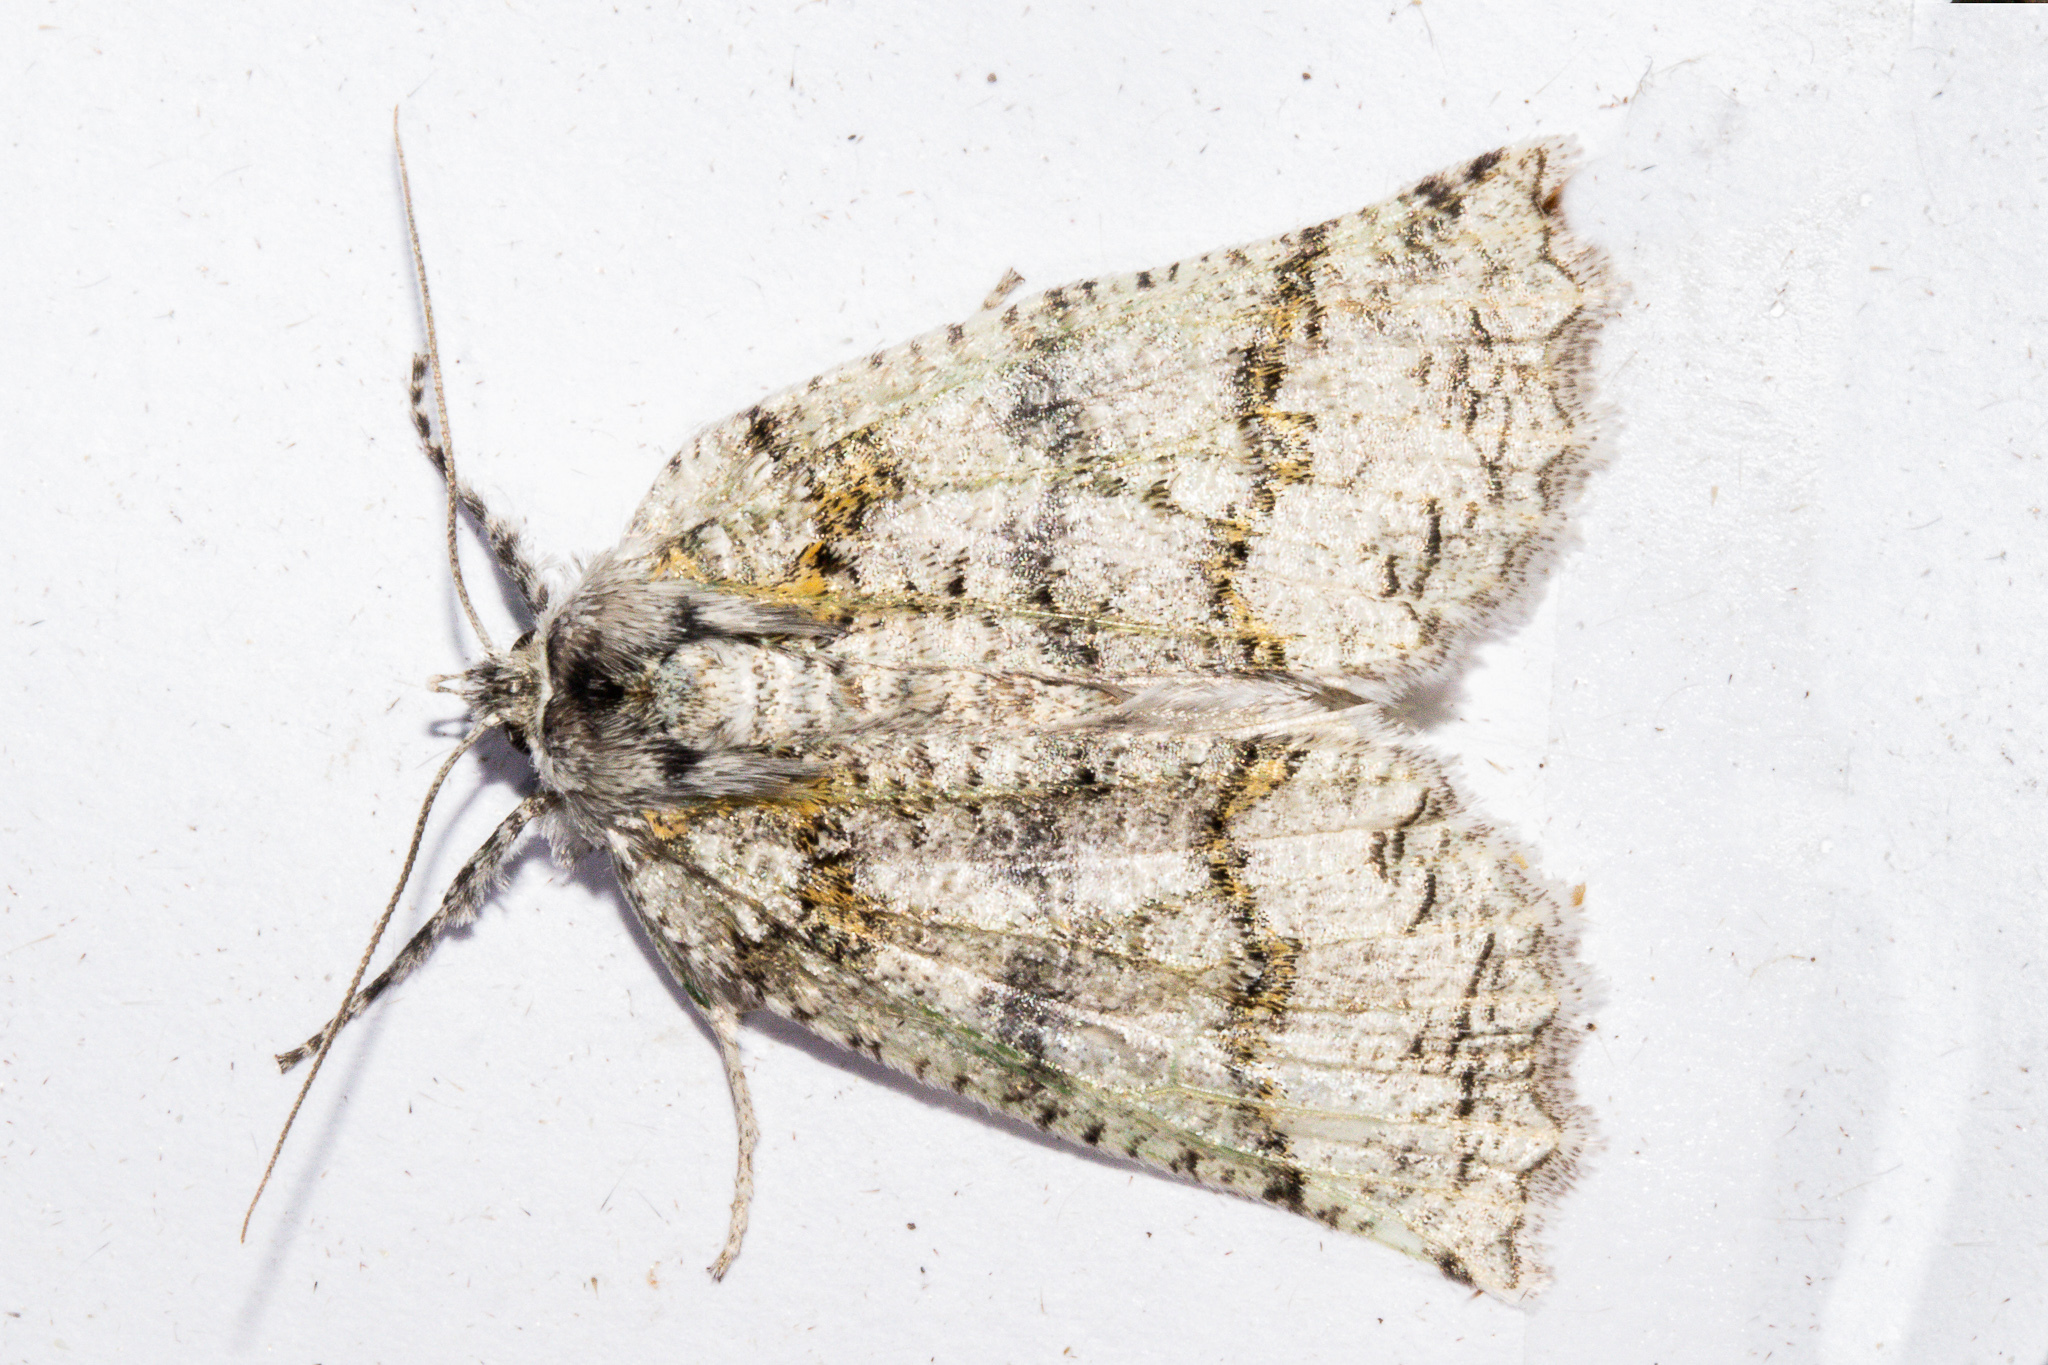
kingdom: Animalia
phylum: Arthropoda
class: Insecta
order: Lepidoptera
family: Geometridae
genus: Declana
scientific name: Declana floccosa
